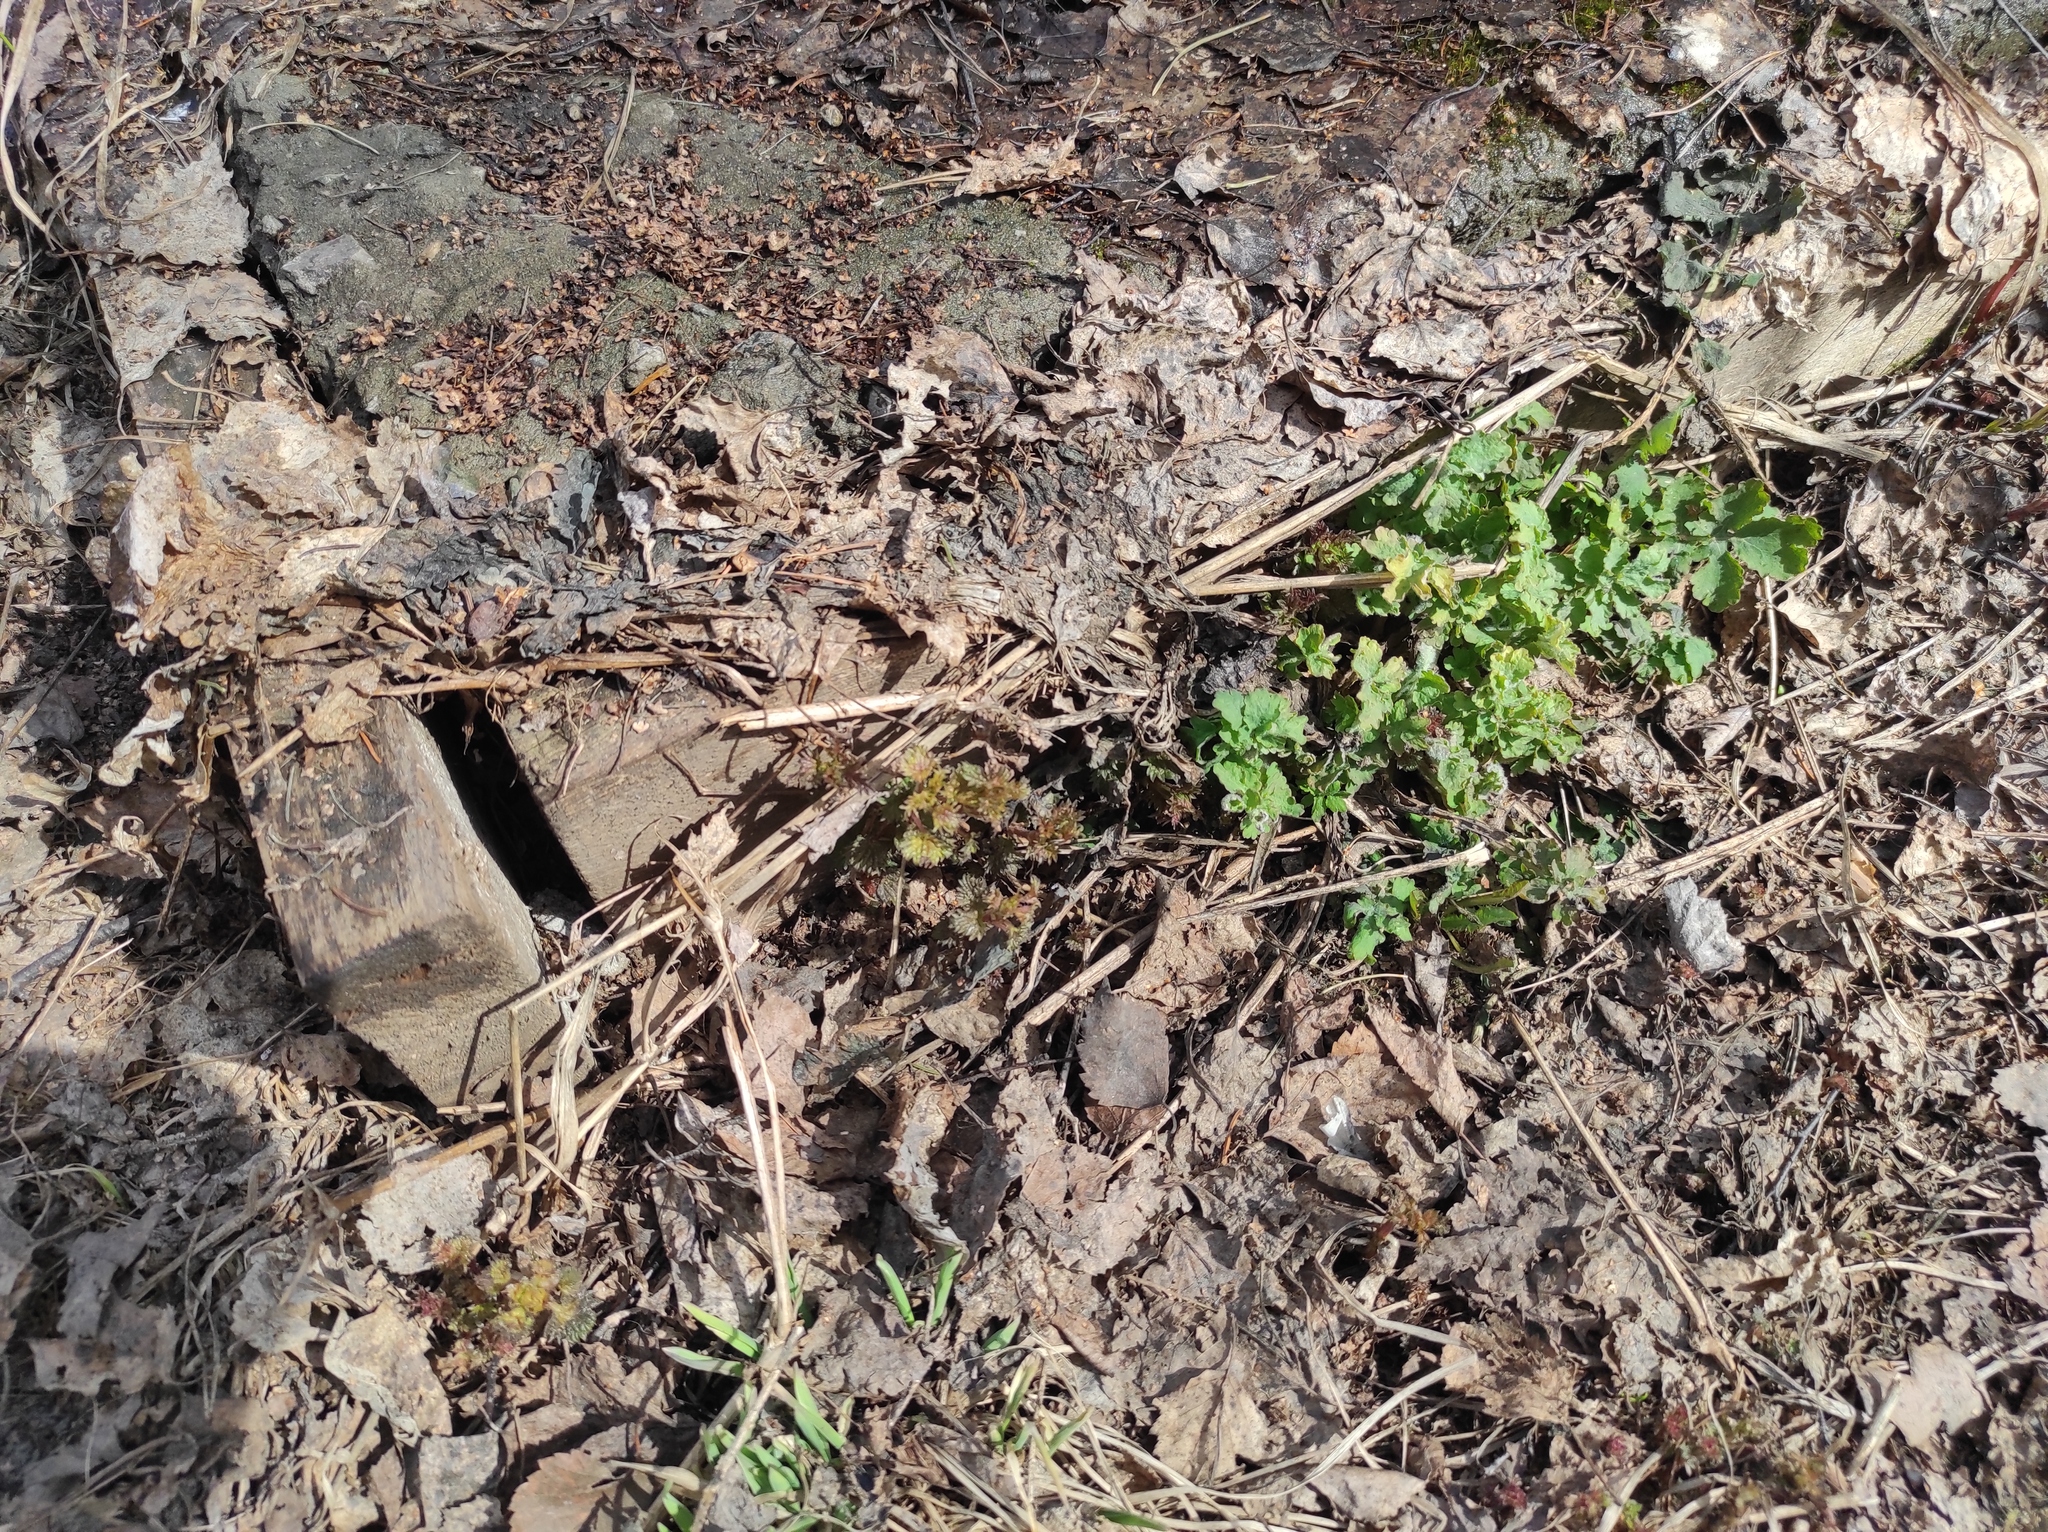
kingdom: Plantae
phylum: Tracheophyta
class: Magnoliopsida
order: Ranunculales
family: Papaveraceae
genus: Chelidonium
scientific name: Chelidonium majus
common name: Greater celandine
